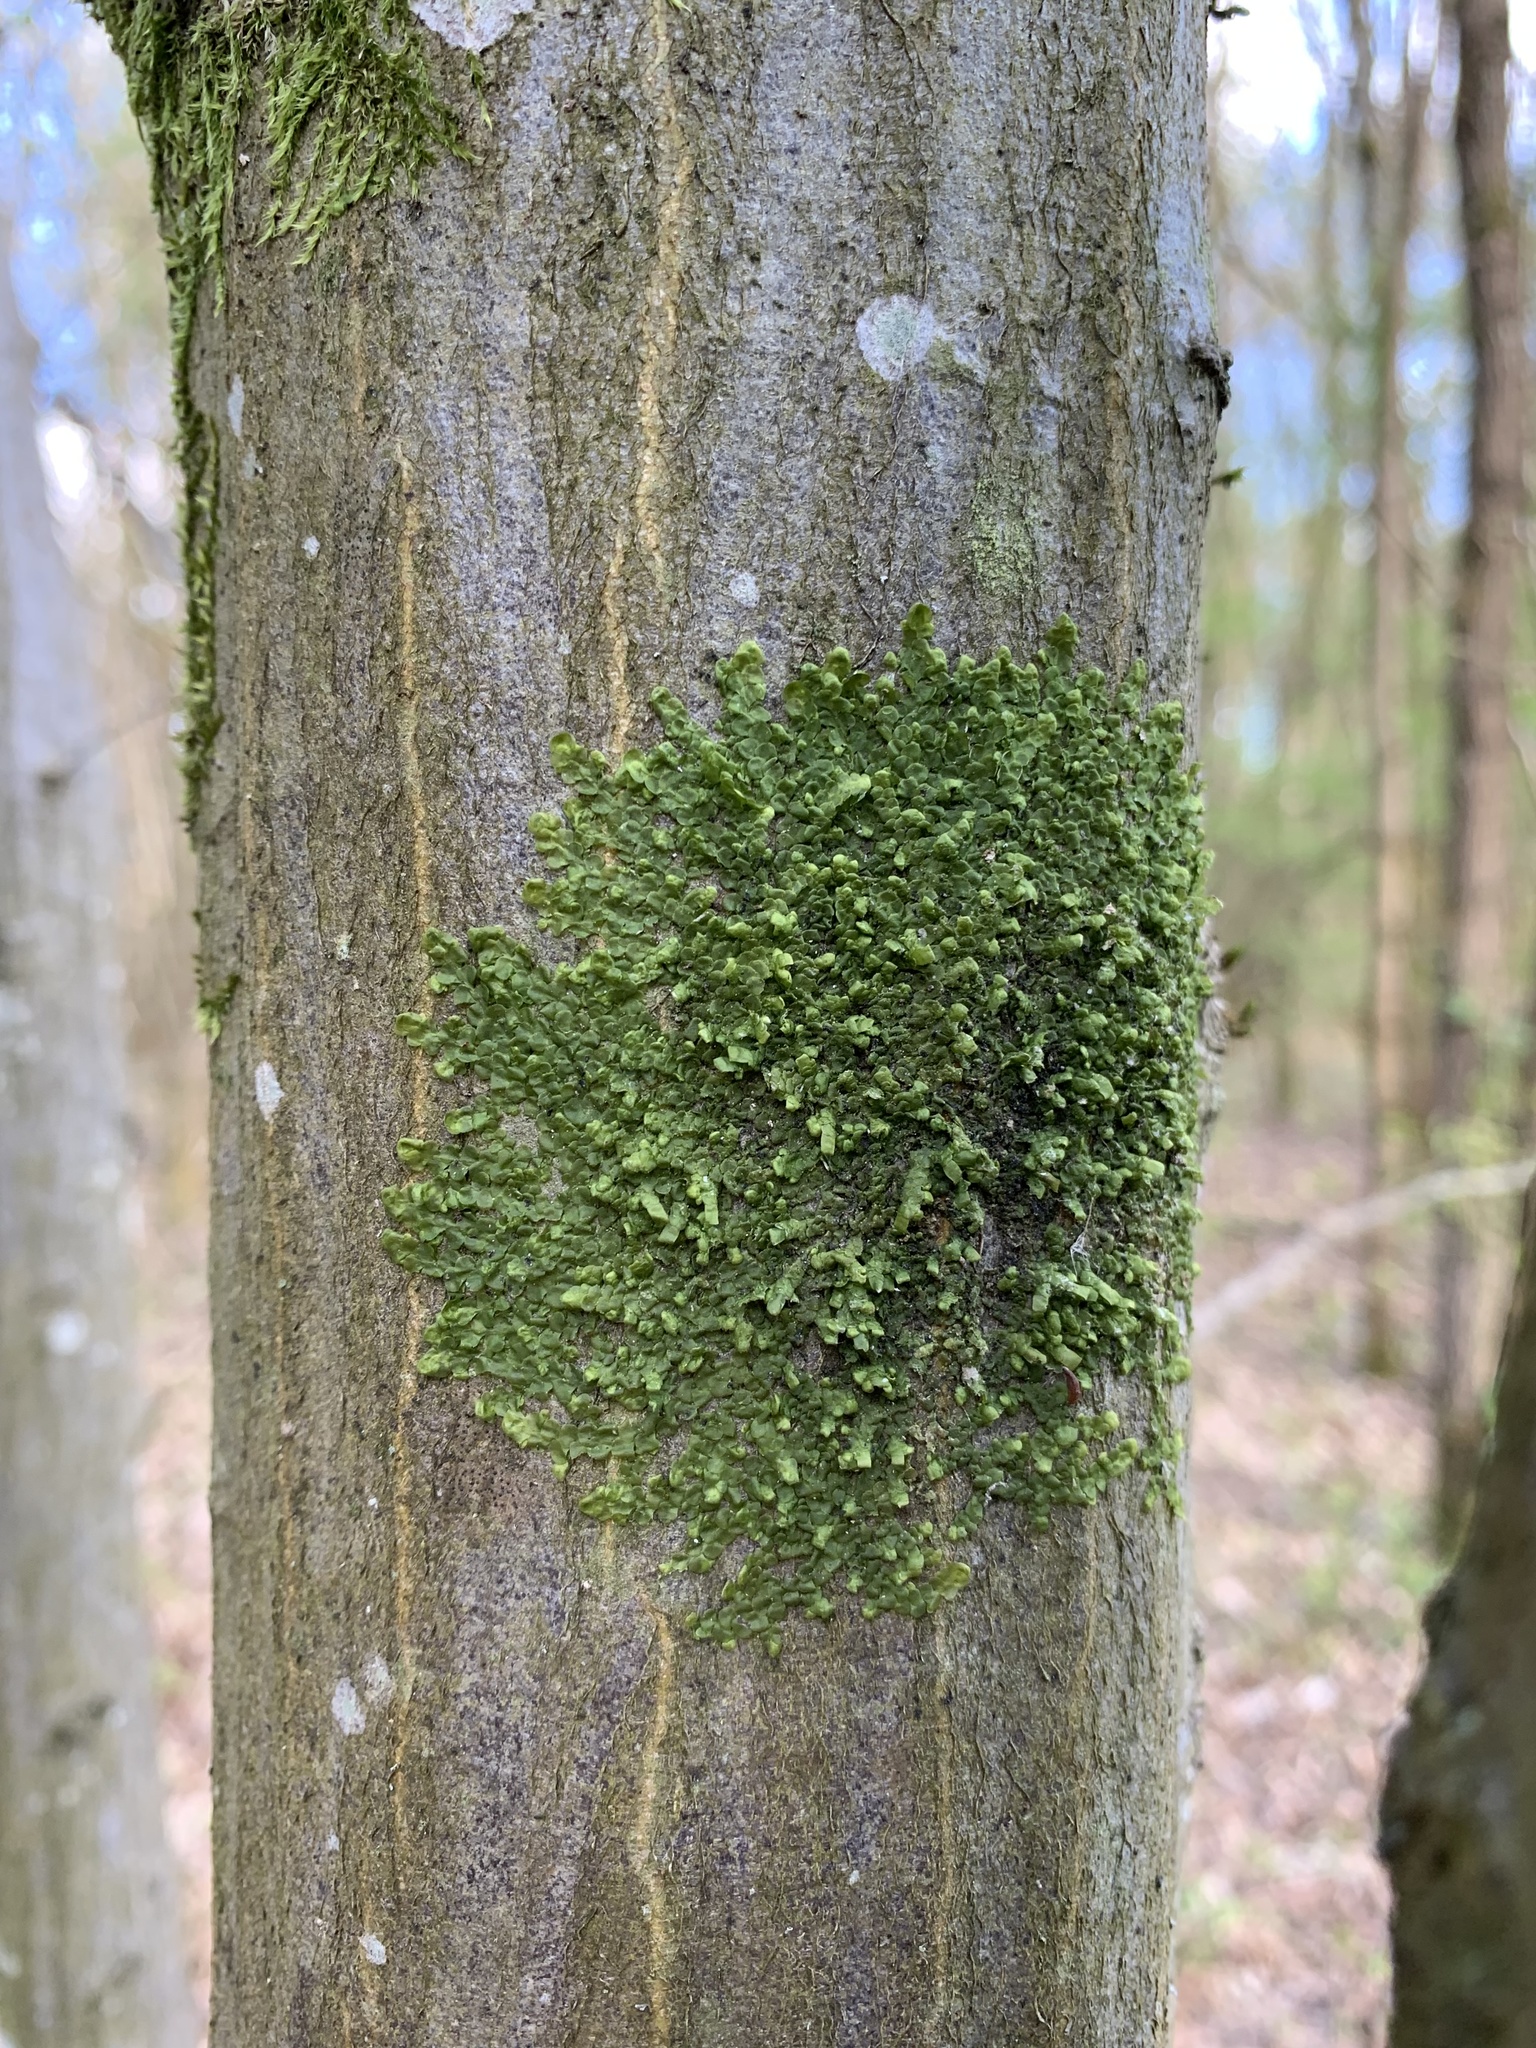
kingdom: Plantae
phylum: Marchantiophyta
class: Jungermanniopsida
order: Porellales
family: Radulaceae
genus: Radula
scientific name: Radula complanata
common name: Flat-leaved scalewort
